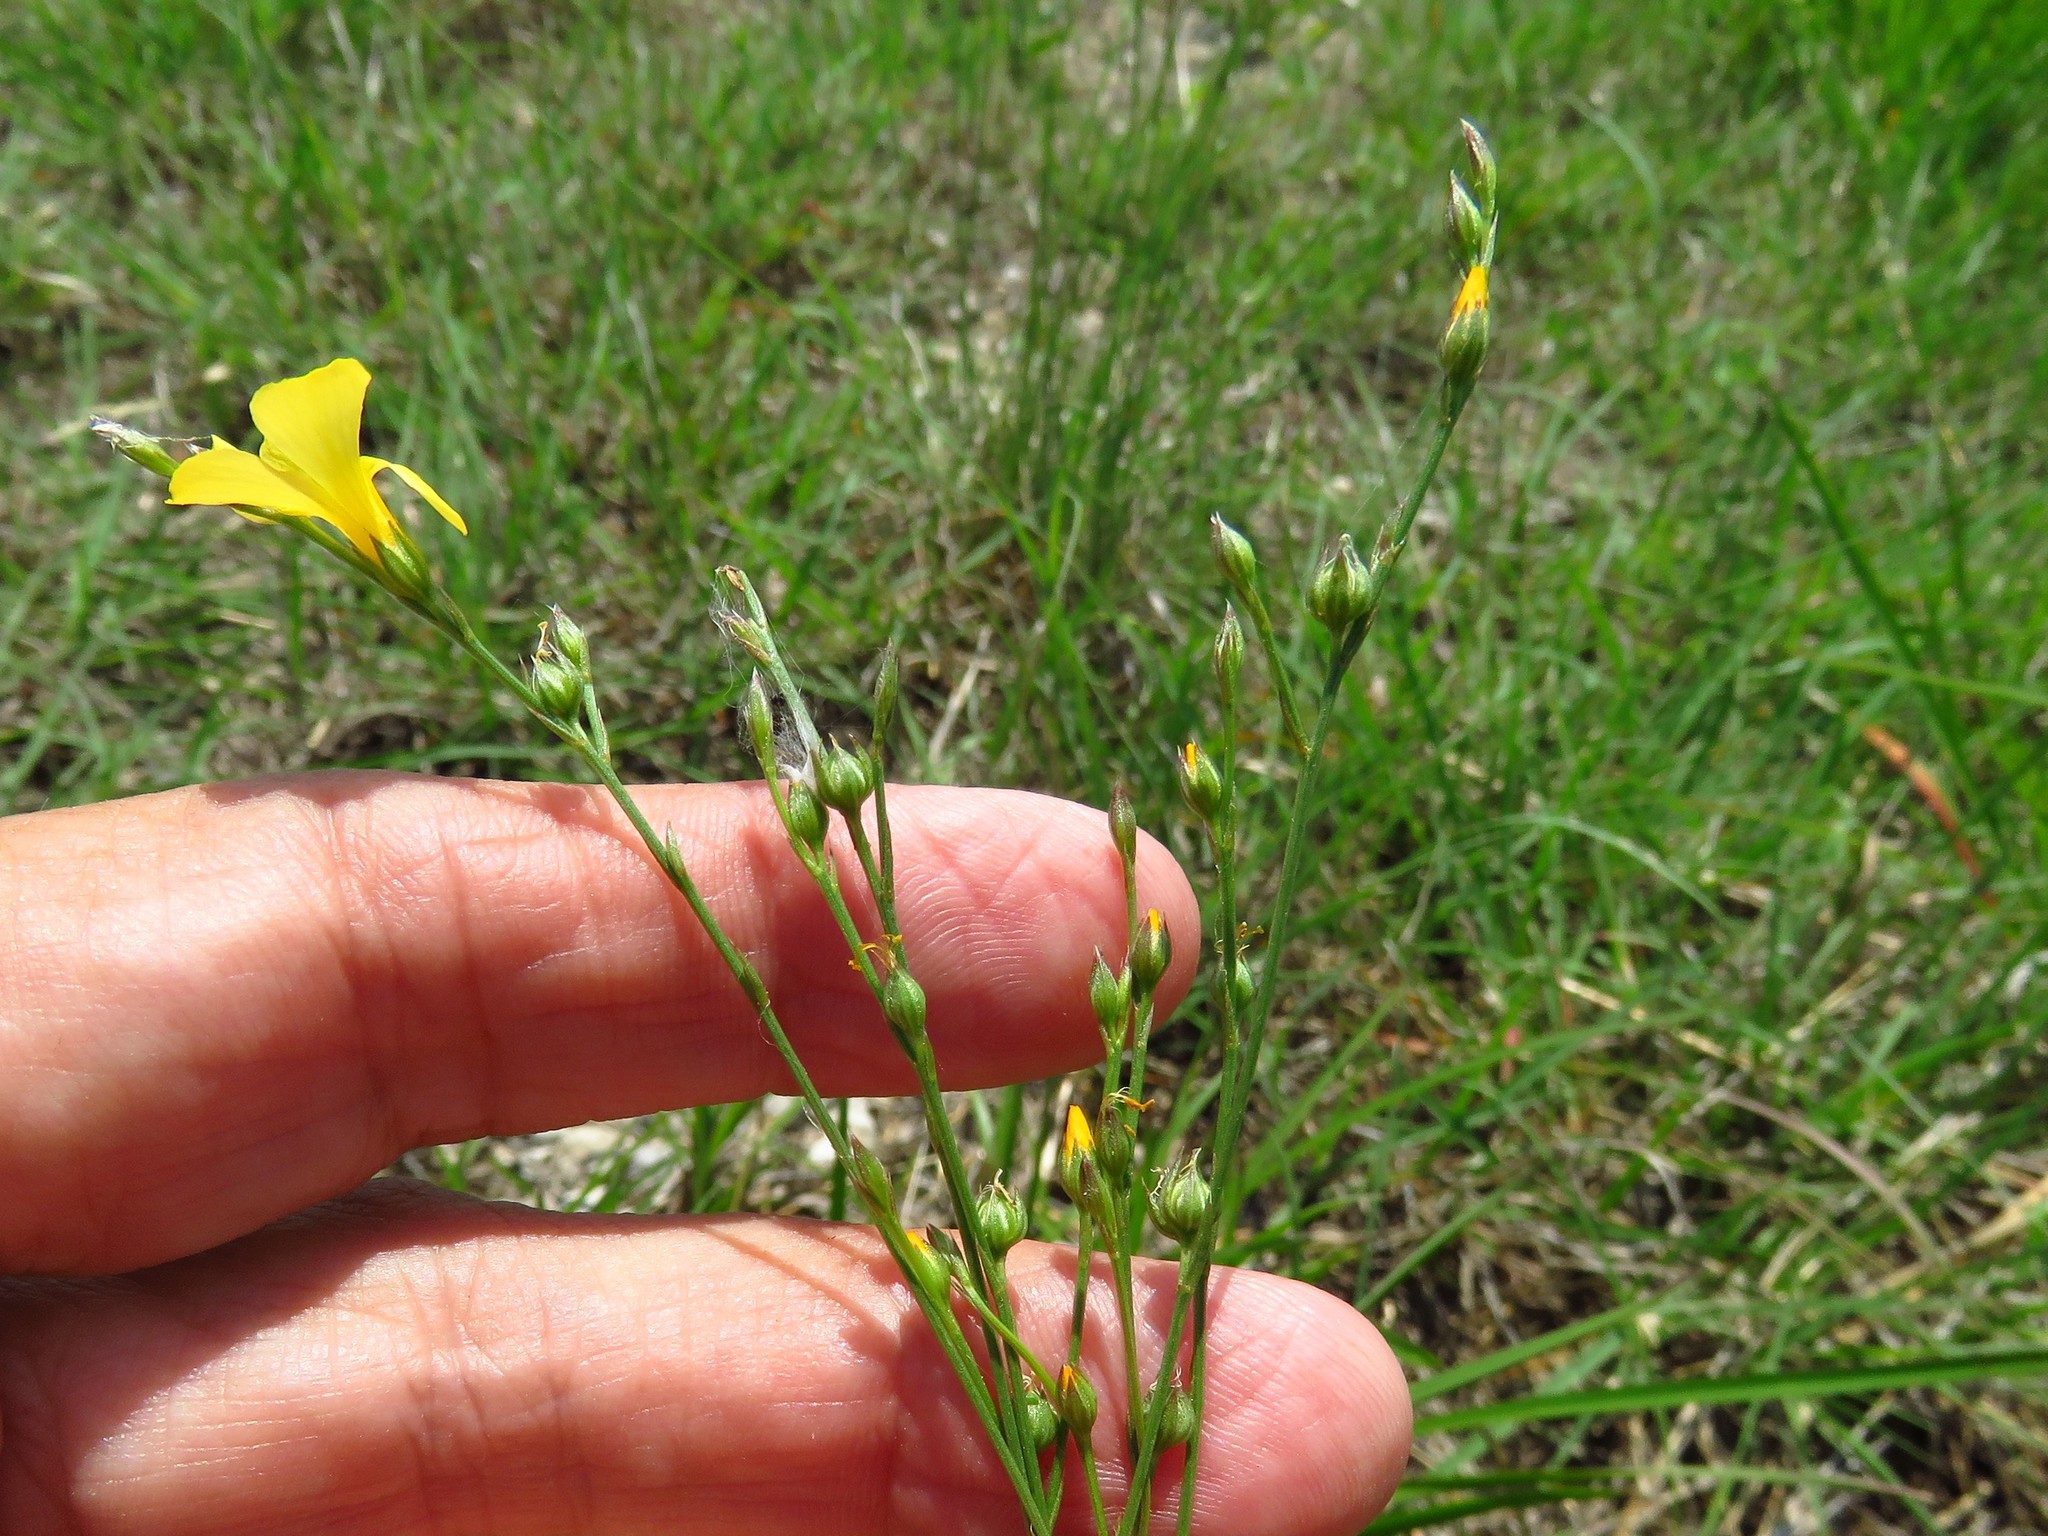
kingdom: Plantae
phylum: Tracheophyta
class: Magnoliopsida
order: Malpighiales
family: Linaceae
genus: Linum
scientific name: Linum rupestre
